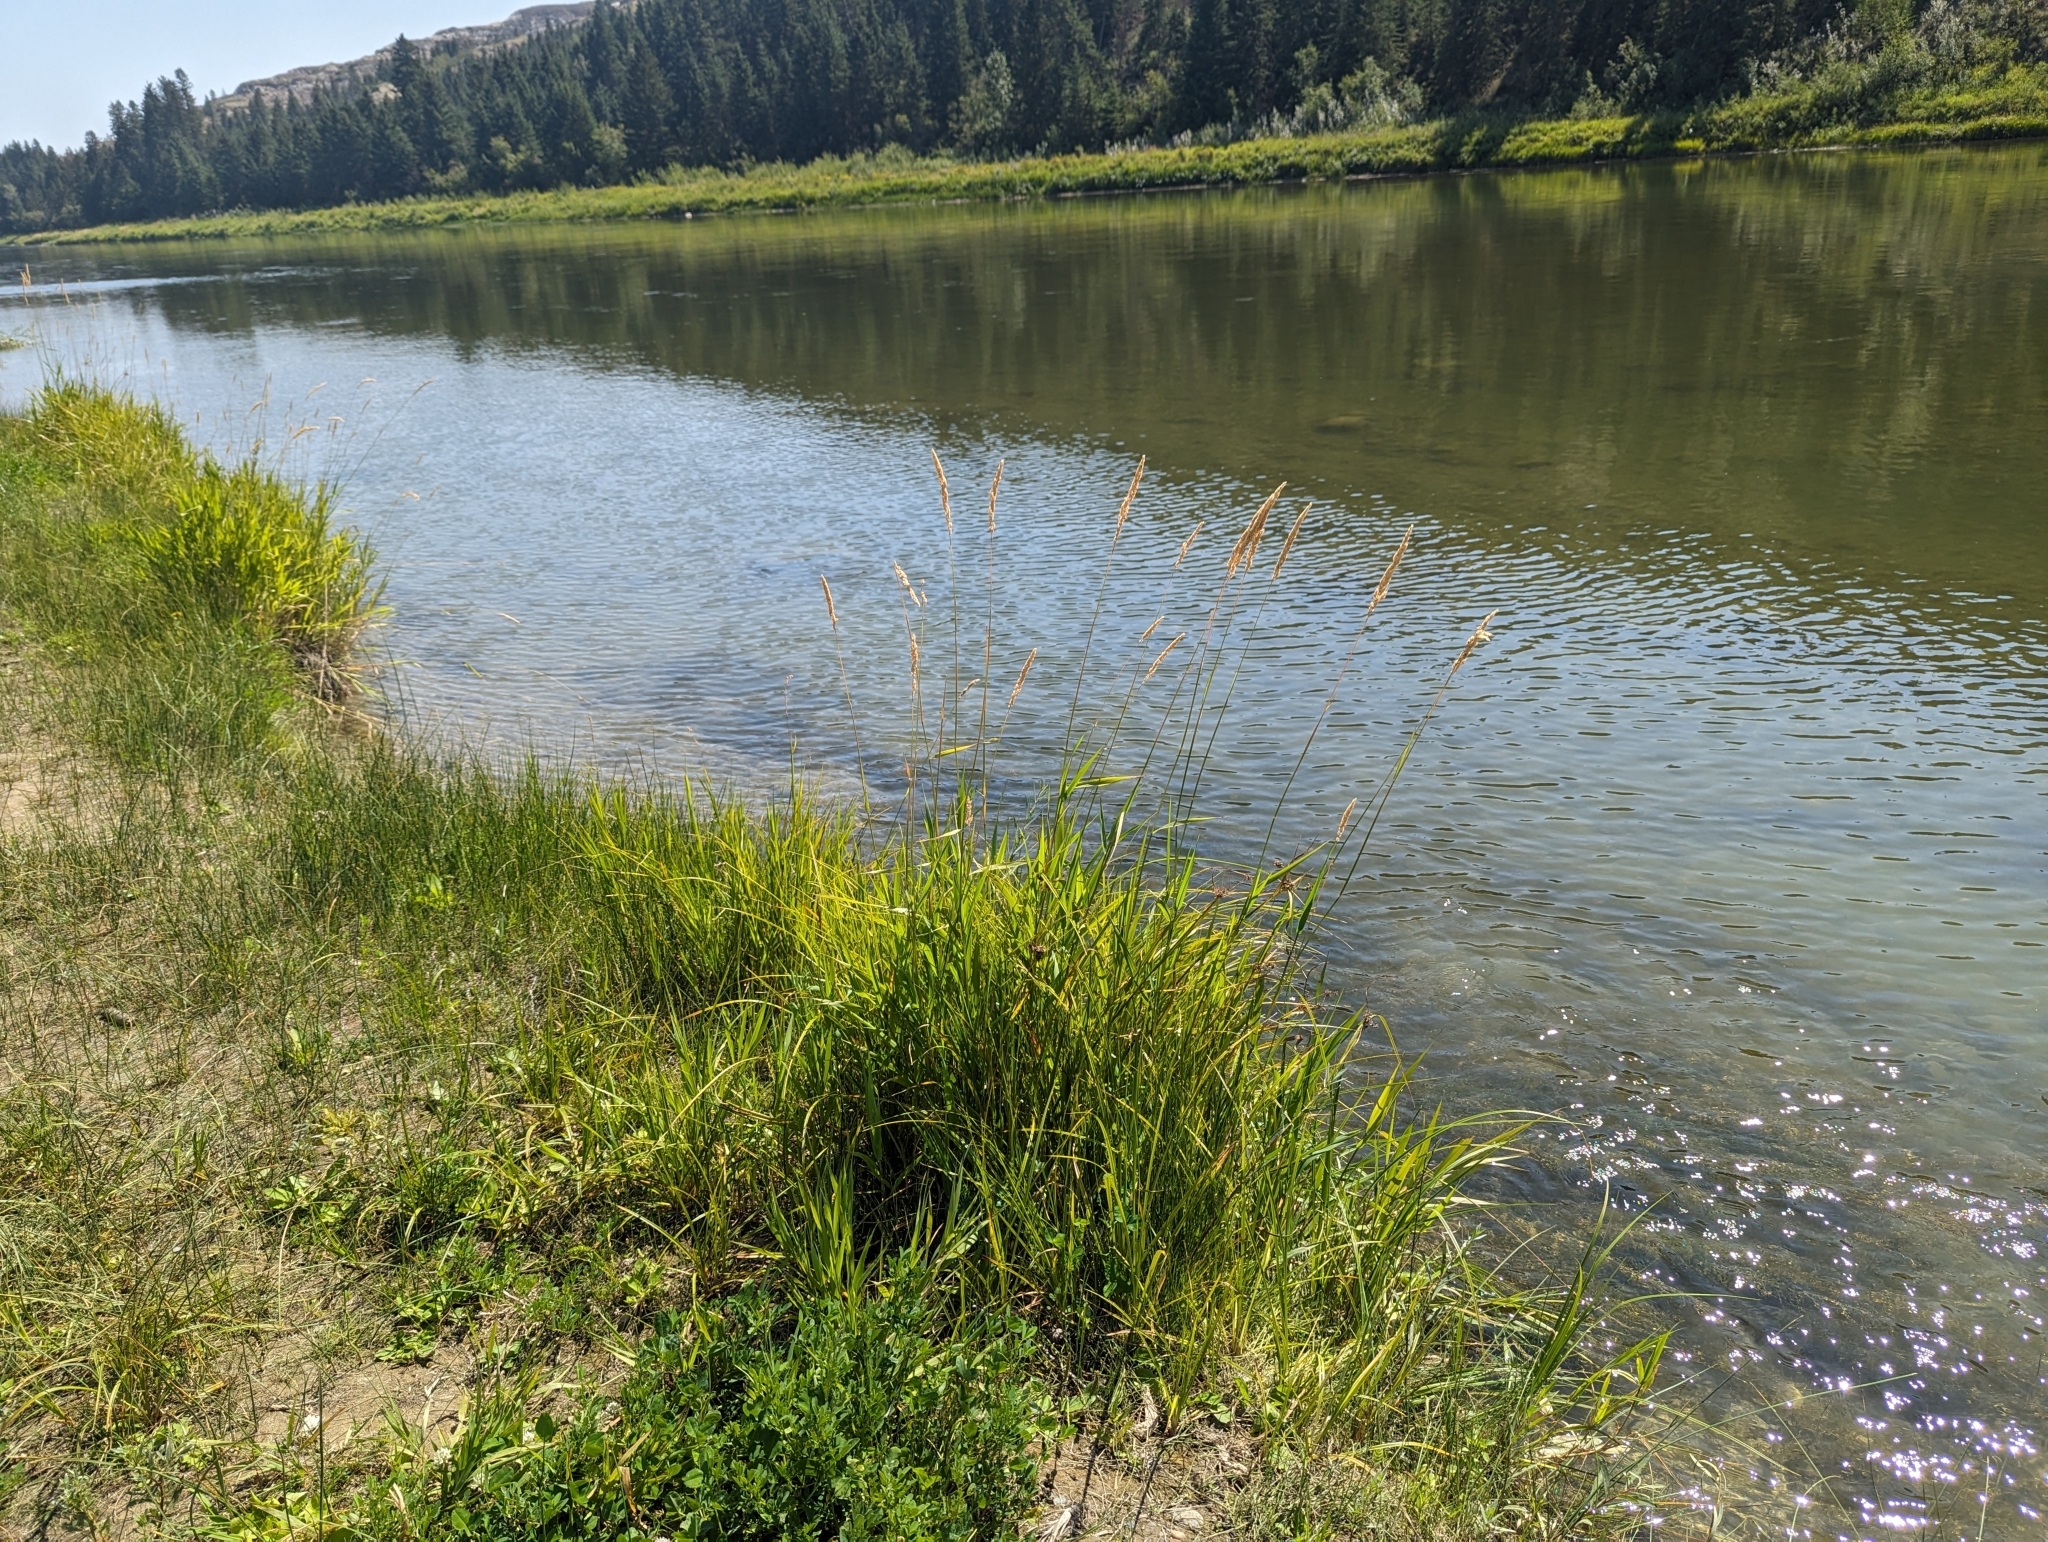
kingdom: Plantae
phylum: Tracheophyta
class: Liliopsida
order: Poales
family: Poaceae
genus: Phalaris
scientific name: Phalaris arundinacea
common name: Reed canary-grass
